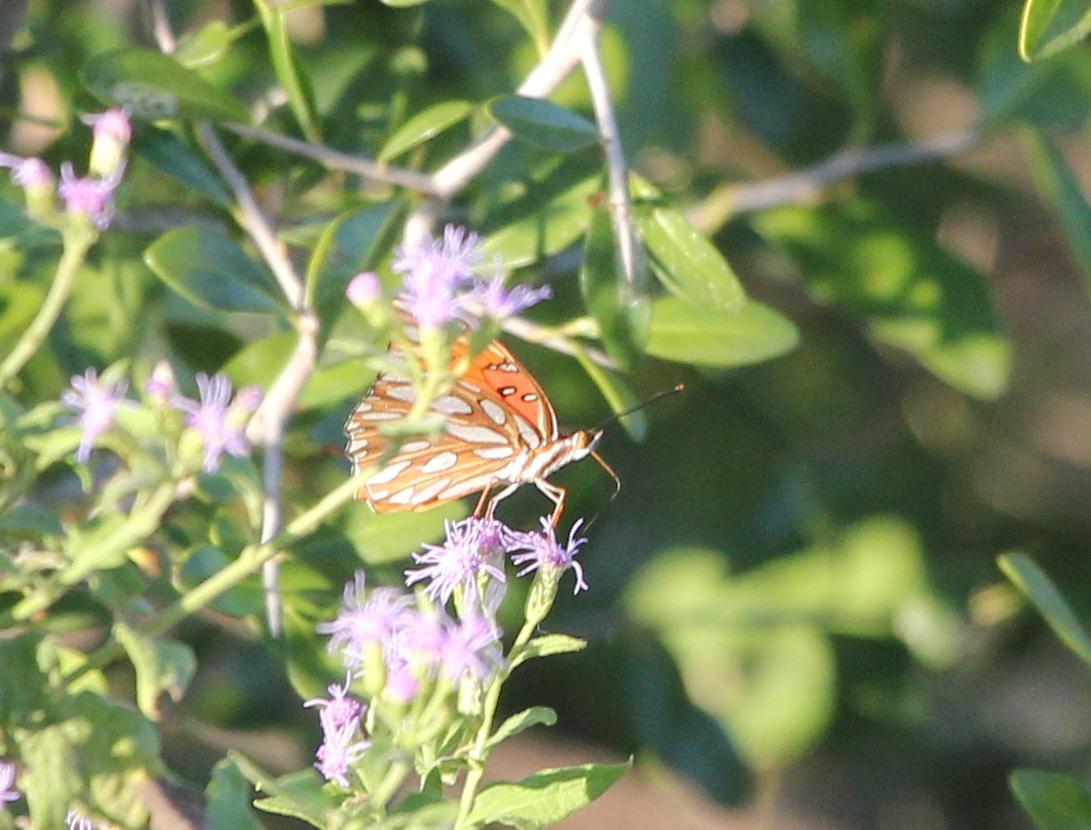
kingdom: Animalia
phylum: Arthropoda
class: Insecta
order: Lepidoptera
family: Nymphalidae
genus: Dione
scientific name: Dione vanillae
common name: Gulf fritillary
